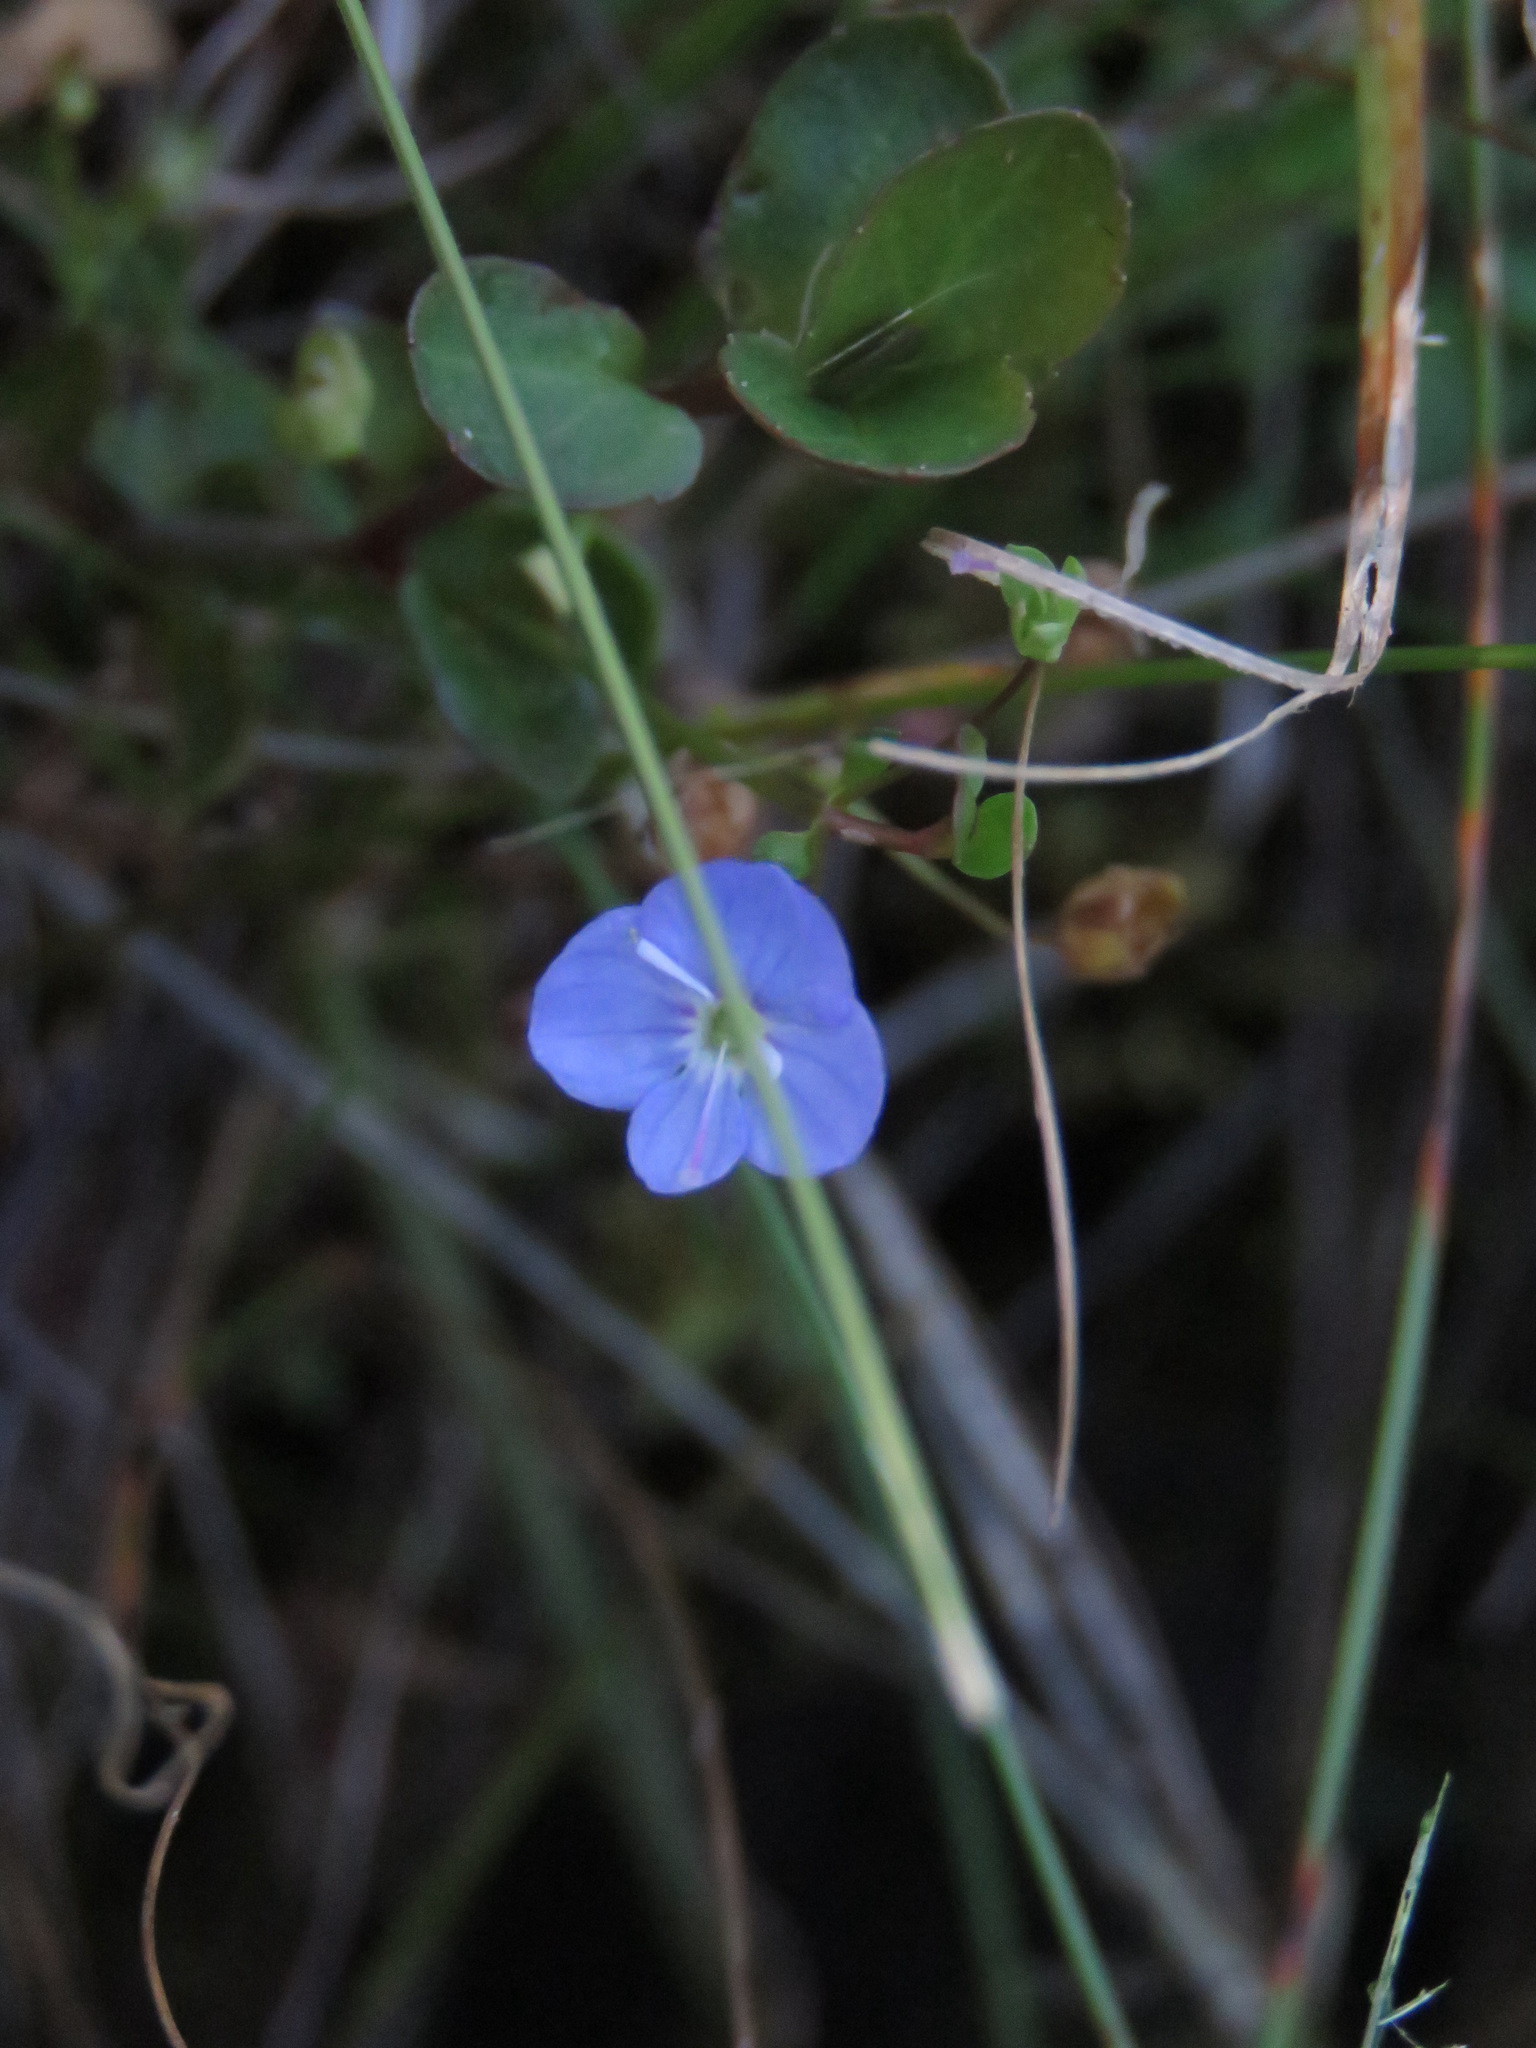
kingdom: Plantae
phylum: Tracheophyta
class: Magnoliopsida
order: Lamiales
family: Plantaginaceae
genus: Veronica
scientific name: Veronica americana
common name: American brooklime
